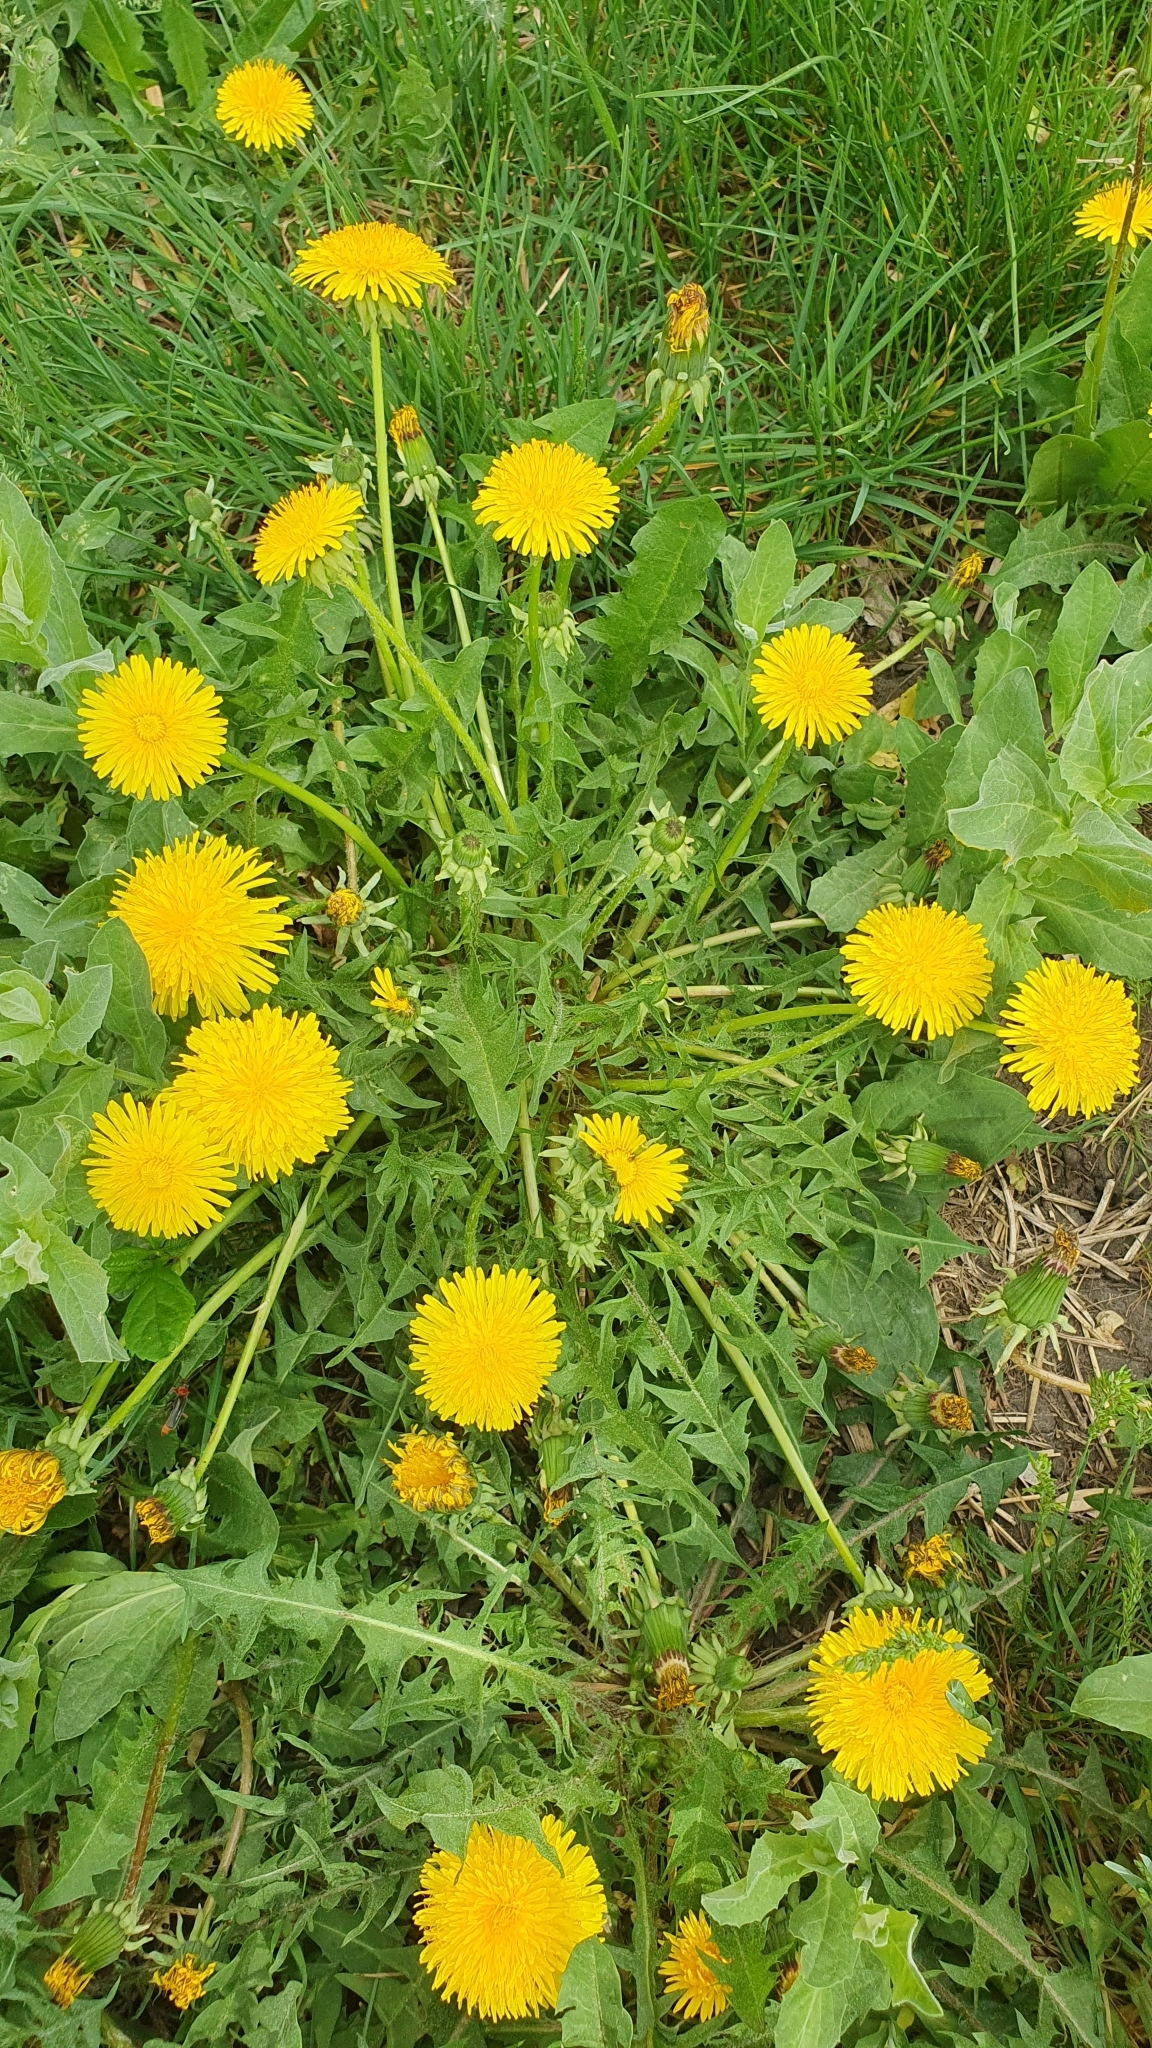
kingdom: Plantae
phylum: Tracheophyta
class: Magnoliopsida
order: Asterales
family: Asteraceae
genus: Taraxacum
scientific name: Taraxacum officinale
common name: Common dandelion
